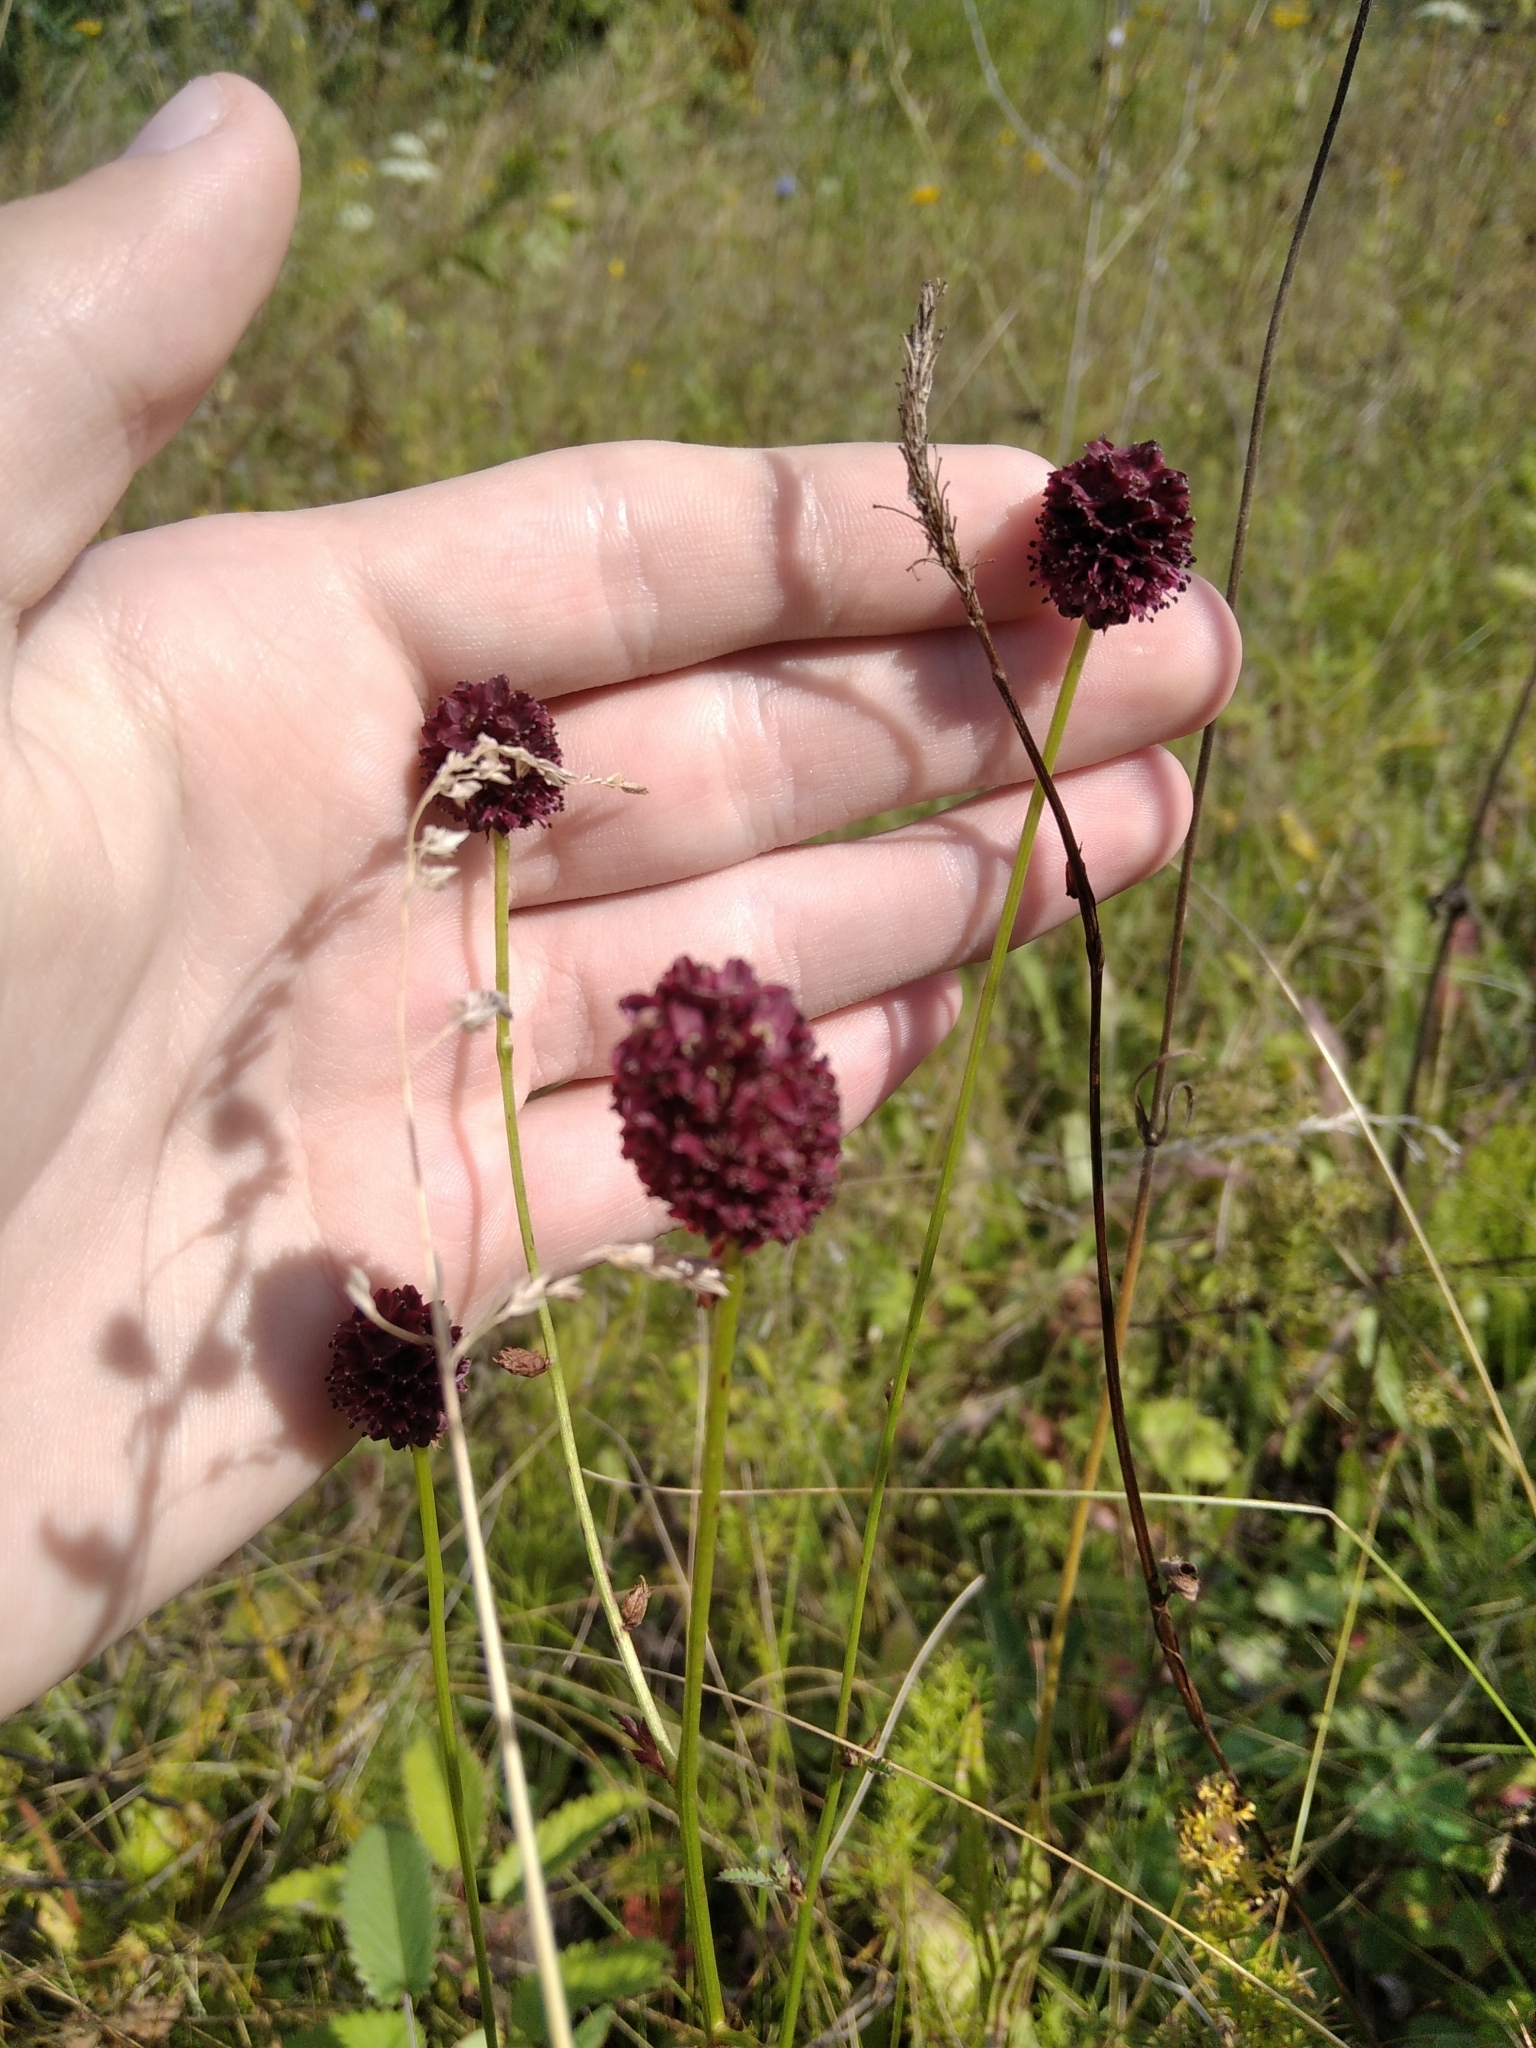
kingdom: Plantae
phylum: Tracheophyta
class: Magnoliopsida
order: Rosales
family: Rosaceae
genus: Sanguisorba
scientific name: Sanguisorba officinalis
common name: Great burnet
